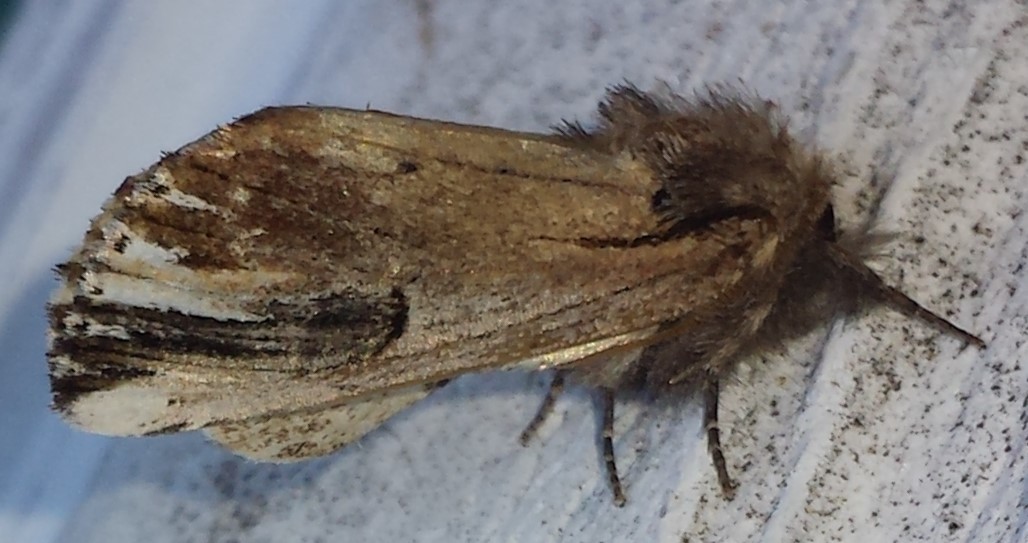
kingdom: Animalia
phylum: Arthropoda
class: Insecta
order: Lepidoptera
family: Notodontidae
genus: Schizura
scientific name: Schizura badia
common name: Chestnut schizura
